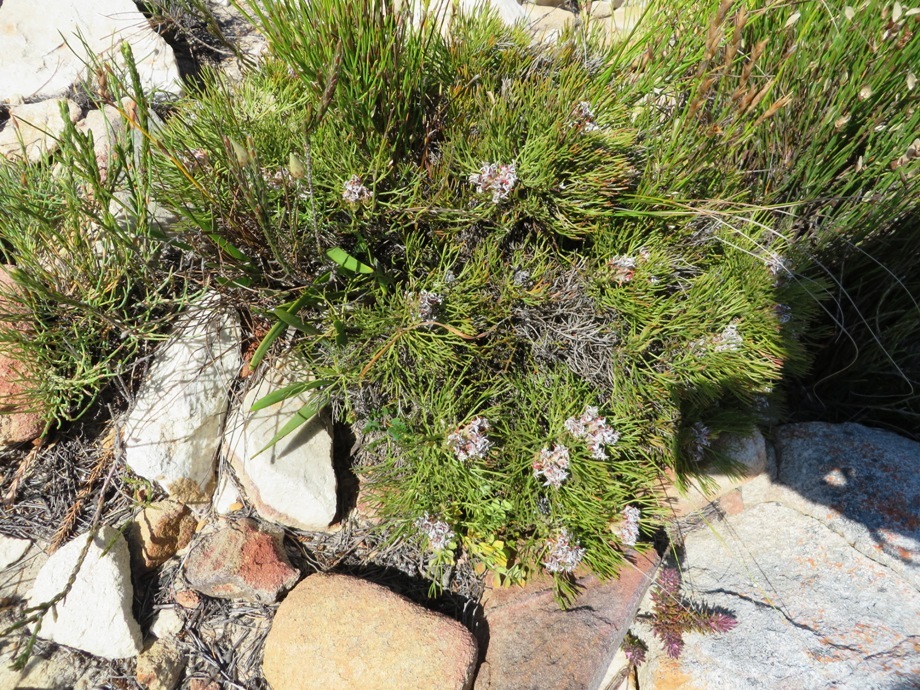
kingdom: Plantae
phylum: Tracheophyta
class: Magnoliopsida
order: Proteales
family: Proteaceae
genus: Serruria
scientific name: Serruria ascendens
